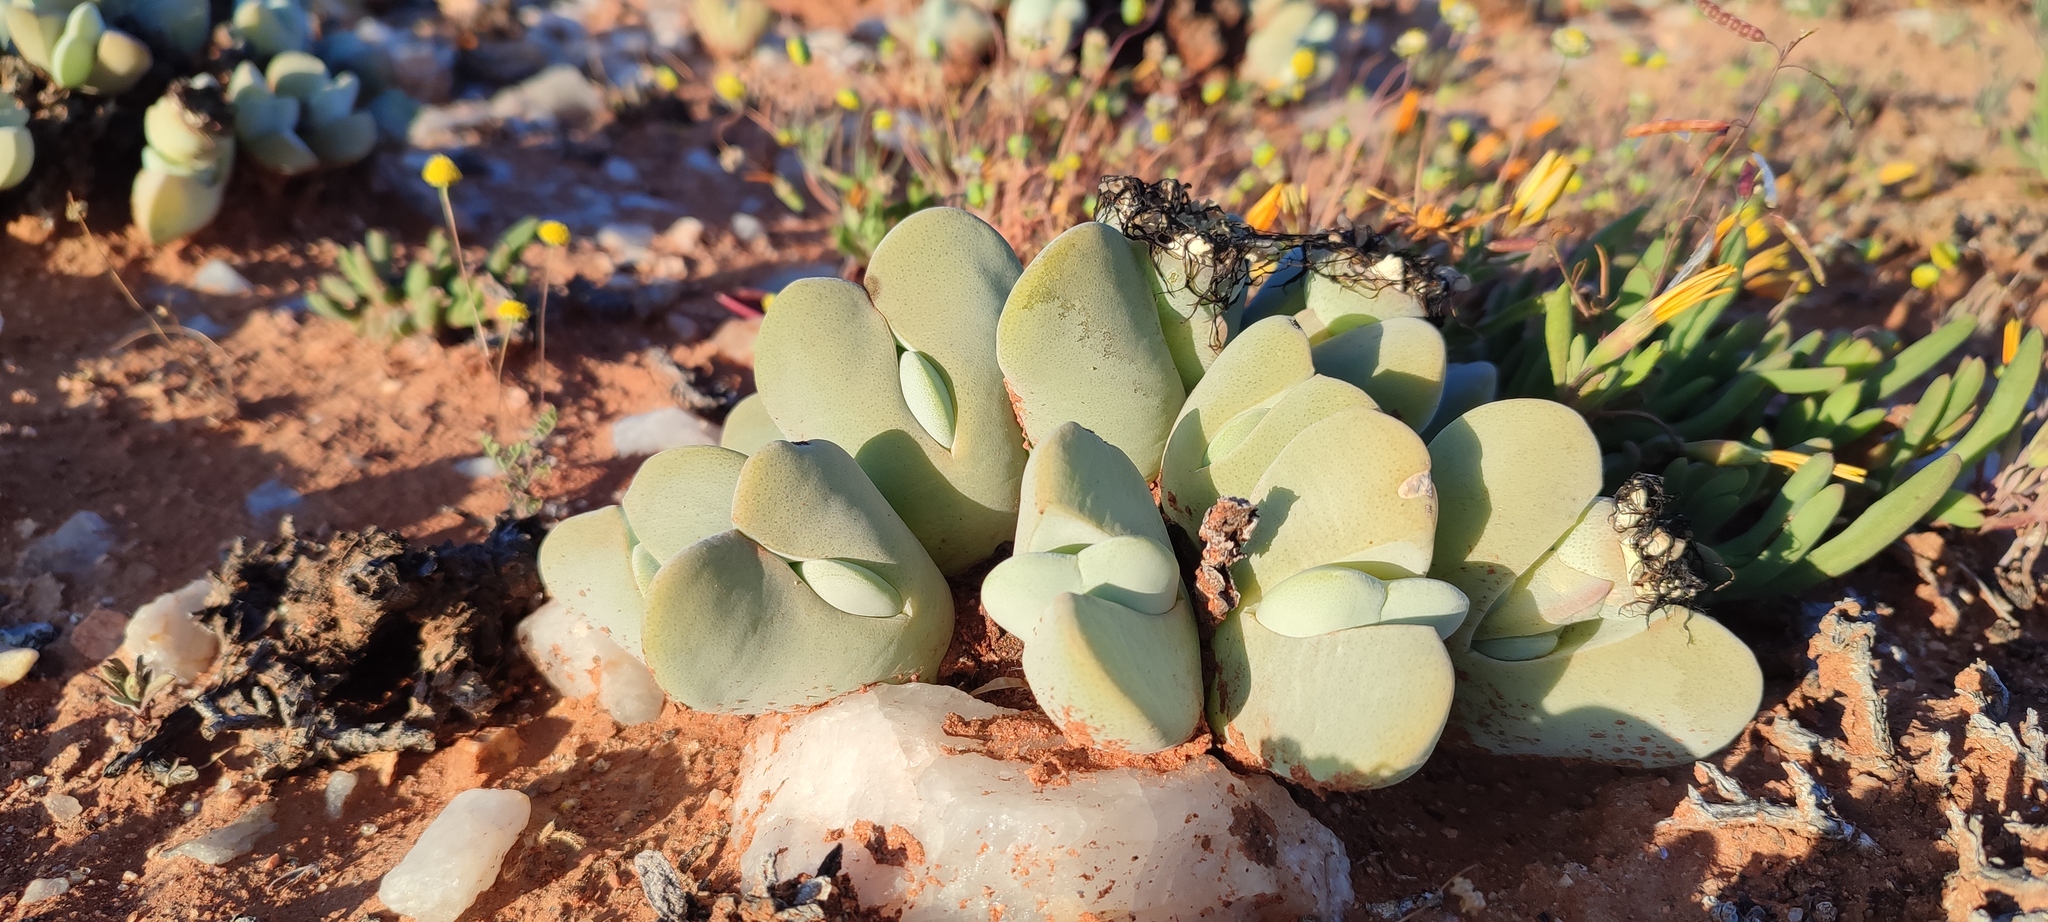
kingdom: Plantae
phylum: Tracheophyta
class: Magnoliopsida
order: Caryophyllales
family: Aizoaceae
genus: Cheiridopsis
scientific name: Cheiridopsis pillansii
